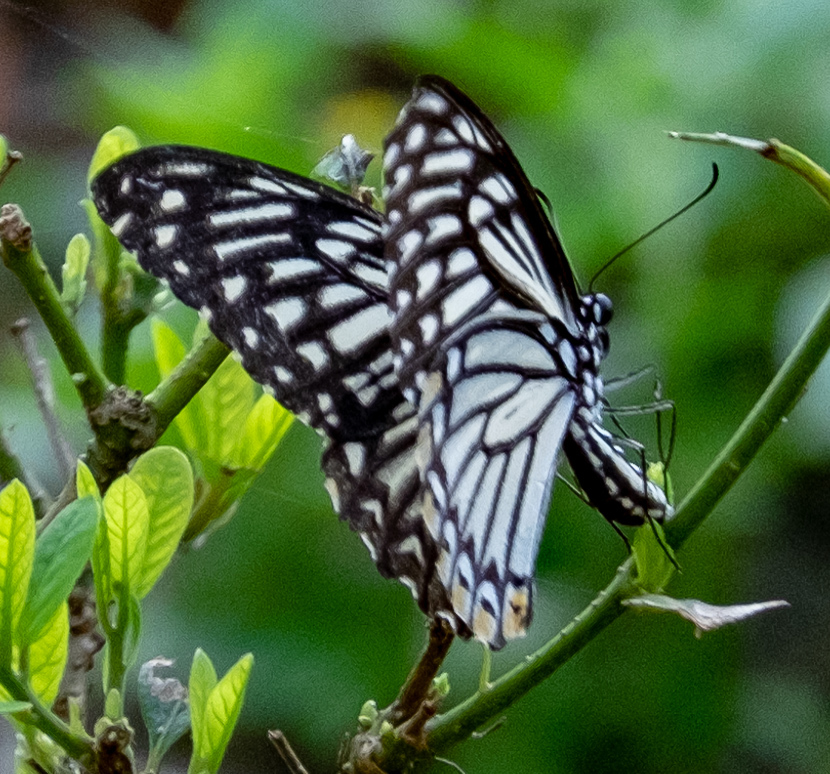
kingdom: Animalia
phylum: Arthropoda
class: Insecta
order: Lepidoptera
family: Papilionidae
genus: Chilasa
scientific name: Chilasa clytia
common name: Common mime
